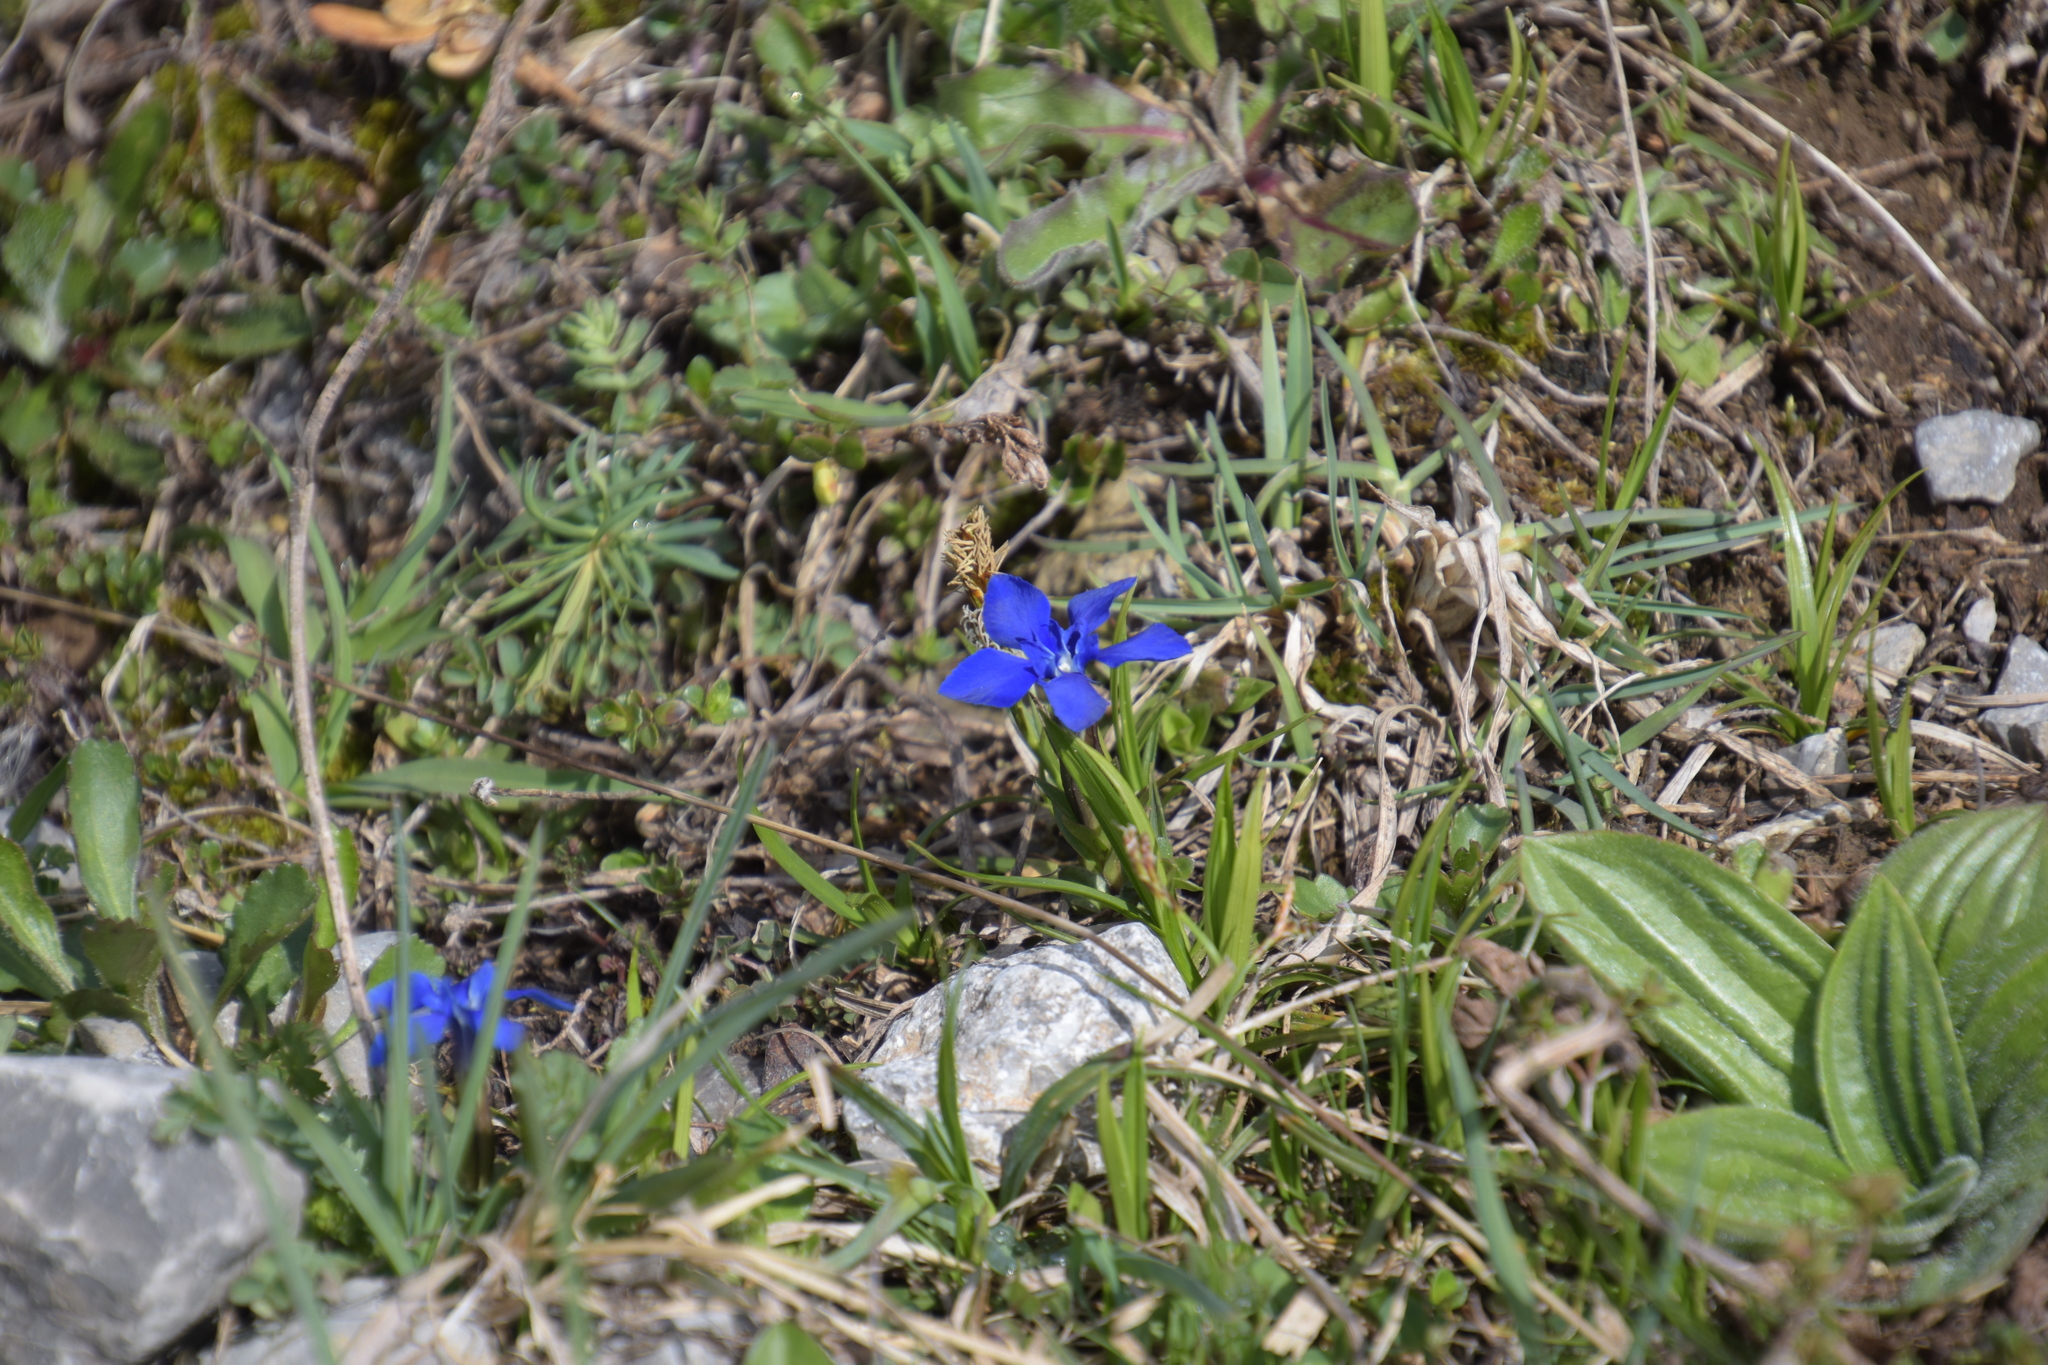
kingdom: Plantae
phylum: Tracheophyta
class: Magnoliopsida
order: Gentianales
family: Gentianaceae
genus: Gentiana
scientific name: Gentiana verna
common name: Spring gentian
